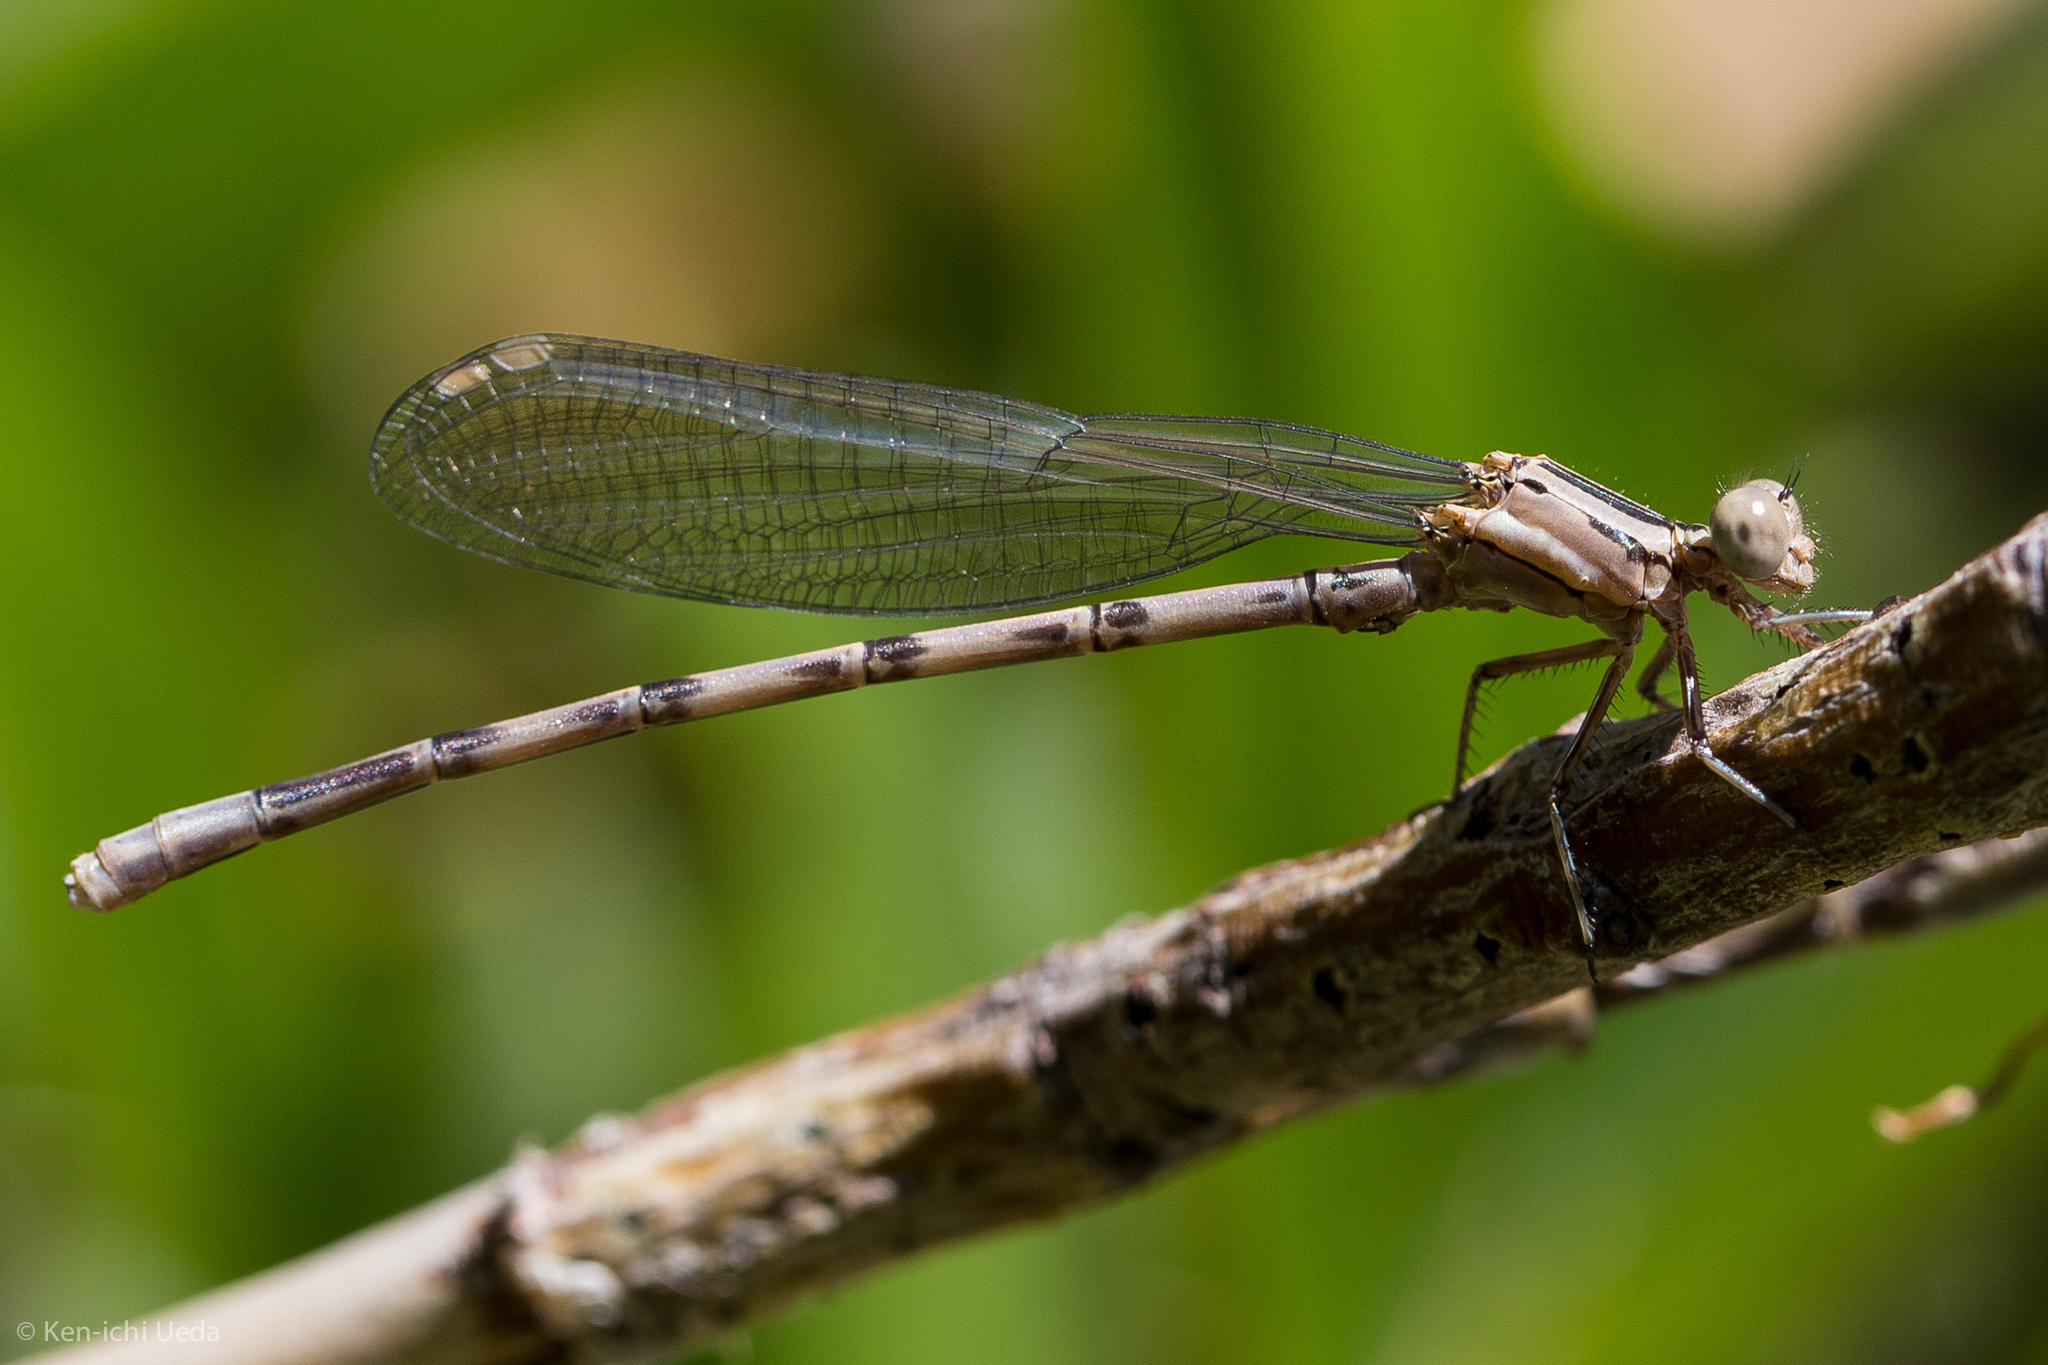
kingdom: Animalia
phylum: Arthropoda
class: Insecta
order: Odonata
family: Coenagrionidae
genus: Argia
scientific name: Argia vivida
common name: Vivid dancer
